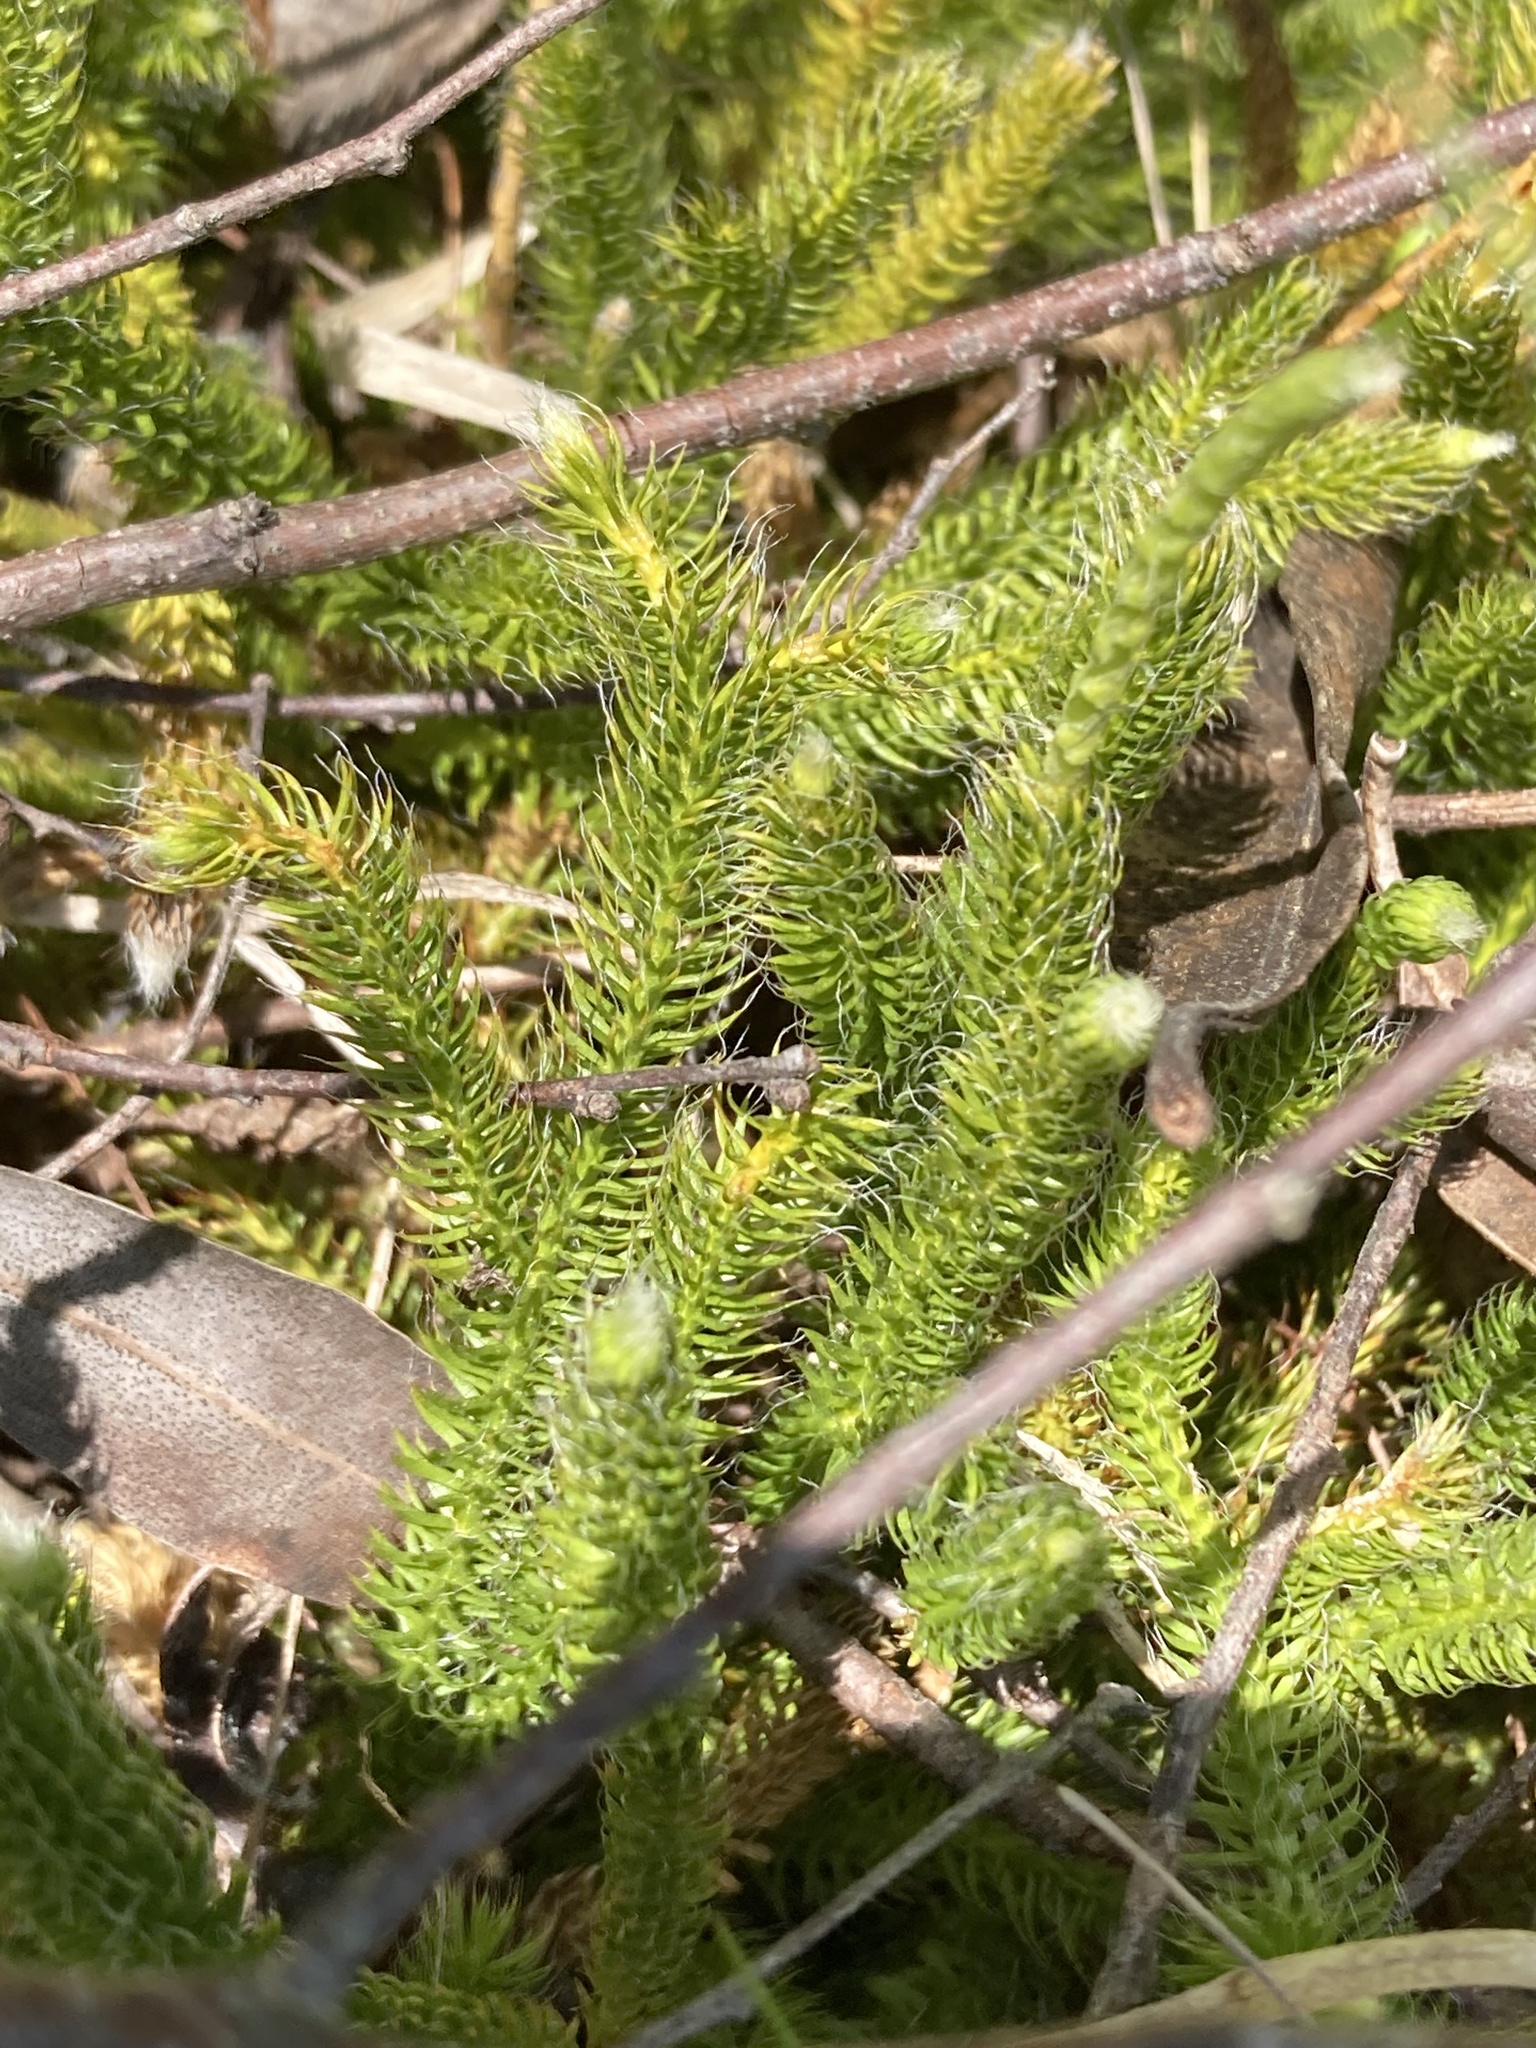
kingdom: Plantae
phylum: Tracheophyta
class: Lycopodiopsida
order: Lycopodiales
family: Lycopodiaceae
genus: Lycopodium
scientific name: Lycopodium clavatum
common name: Stag's-horn clubmoss
